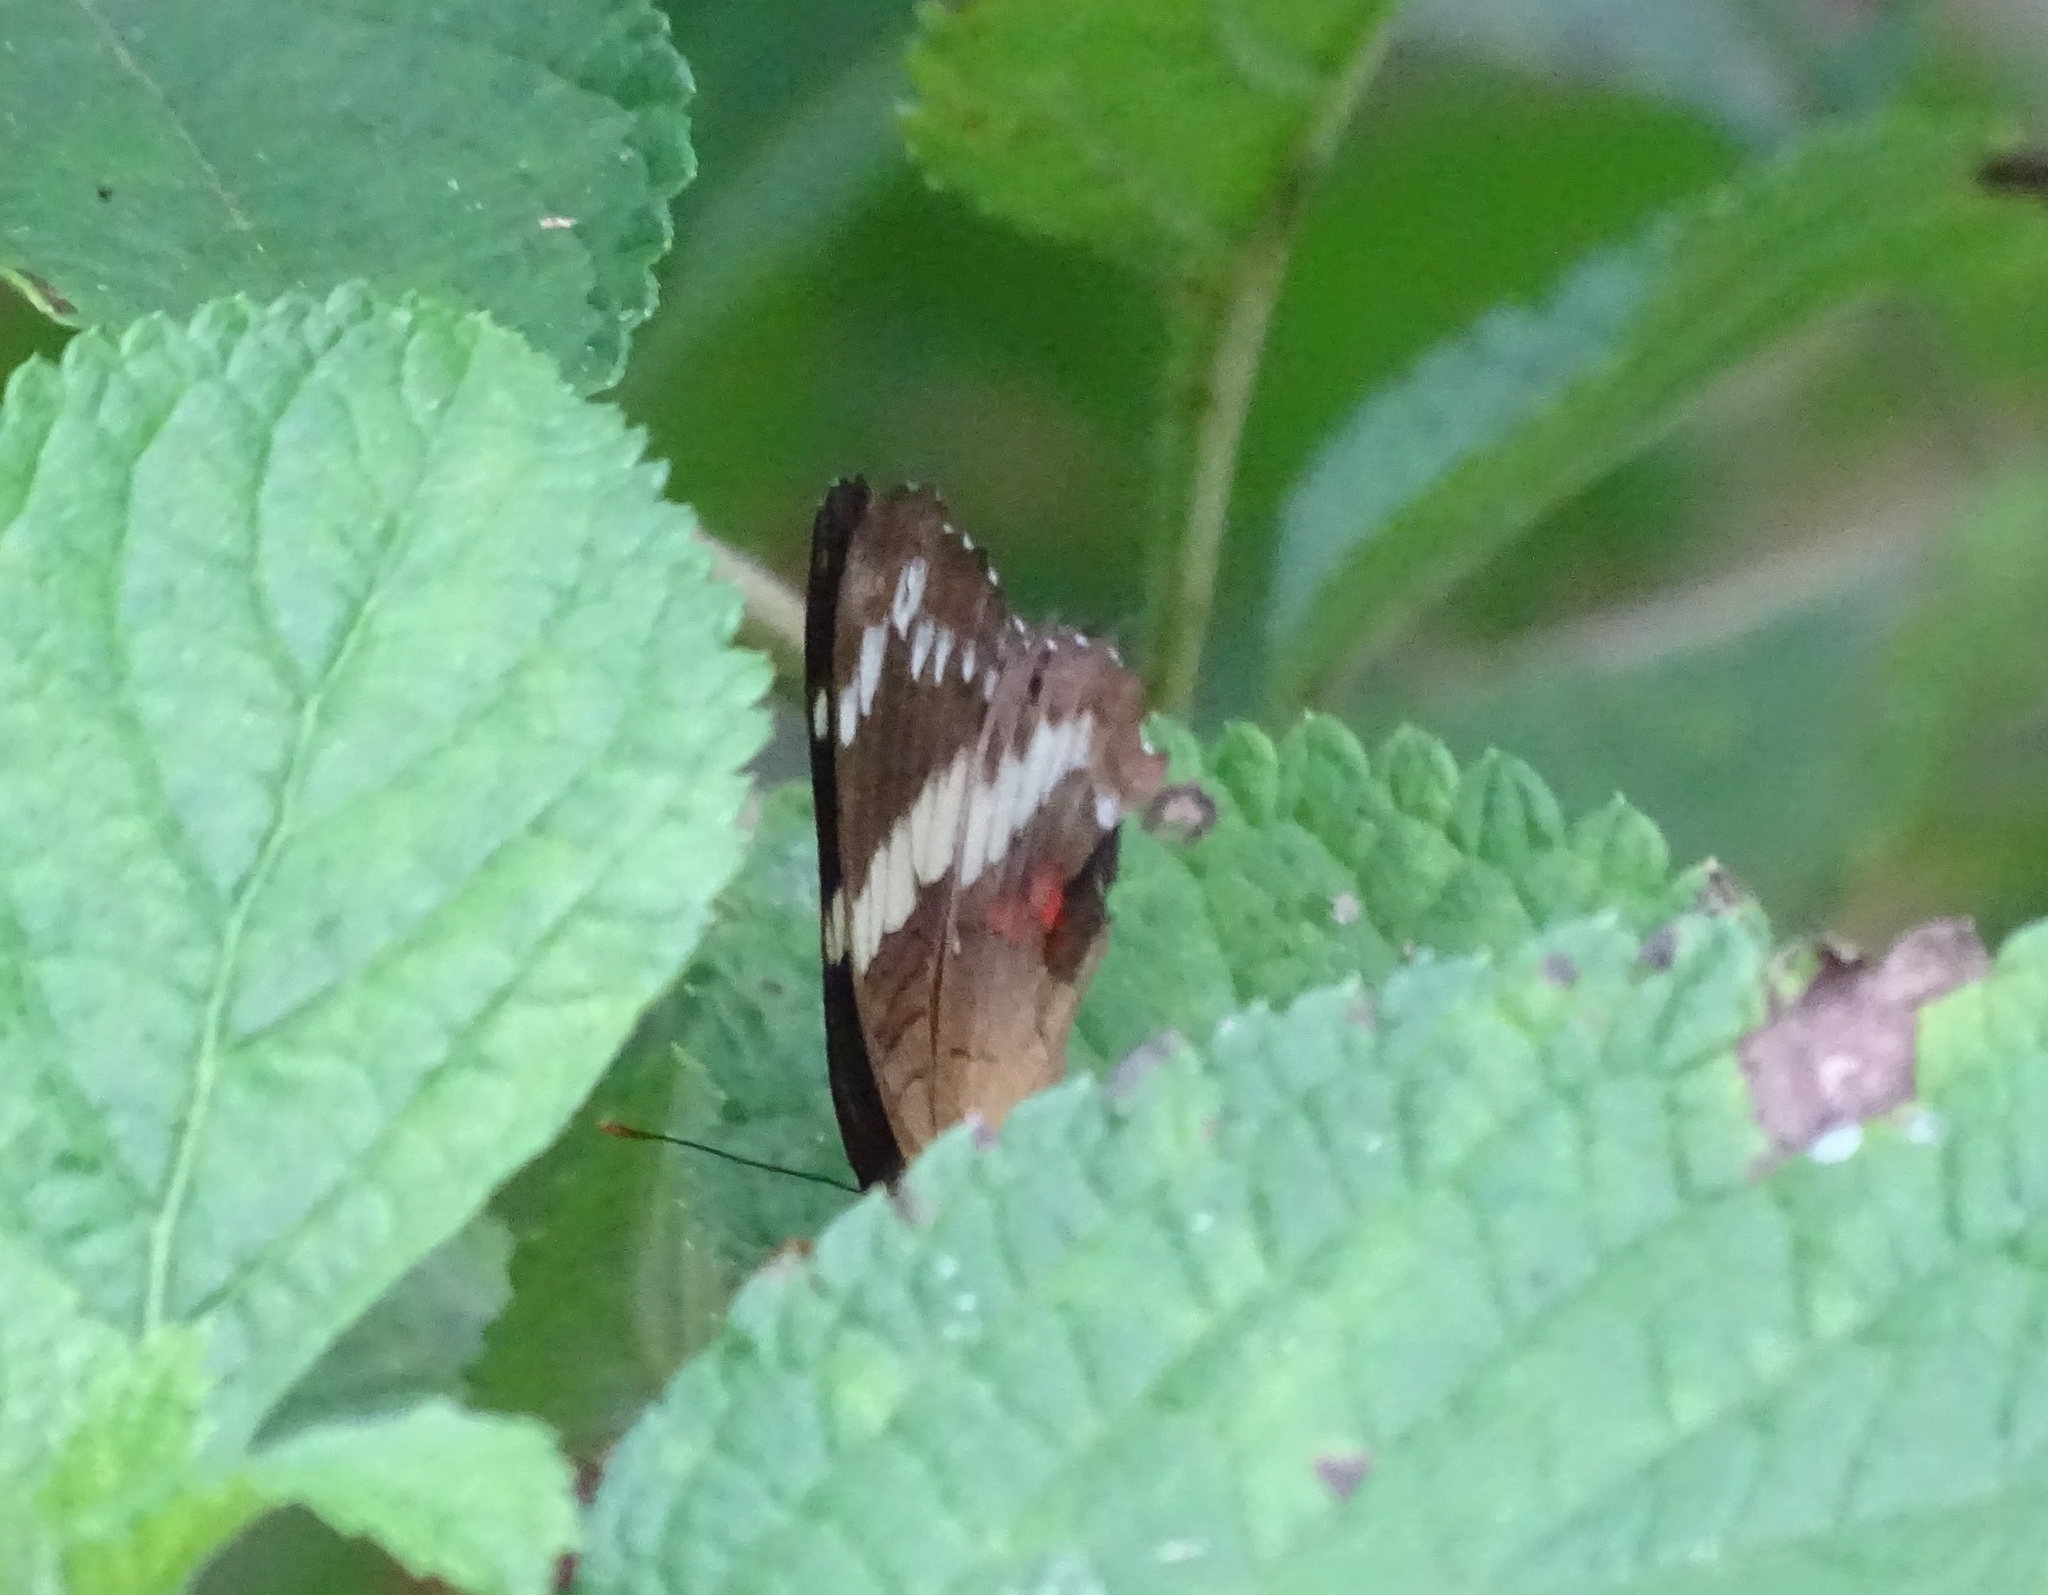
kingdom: Animalia
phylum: Arthropoda
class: Insecta
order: Lepidoptera
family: Nymphalidae
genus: Anartia
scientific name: Anartia fatima
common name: Banded peacock
